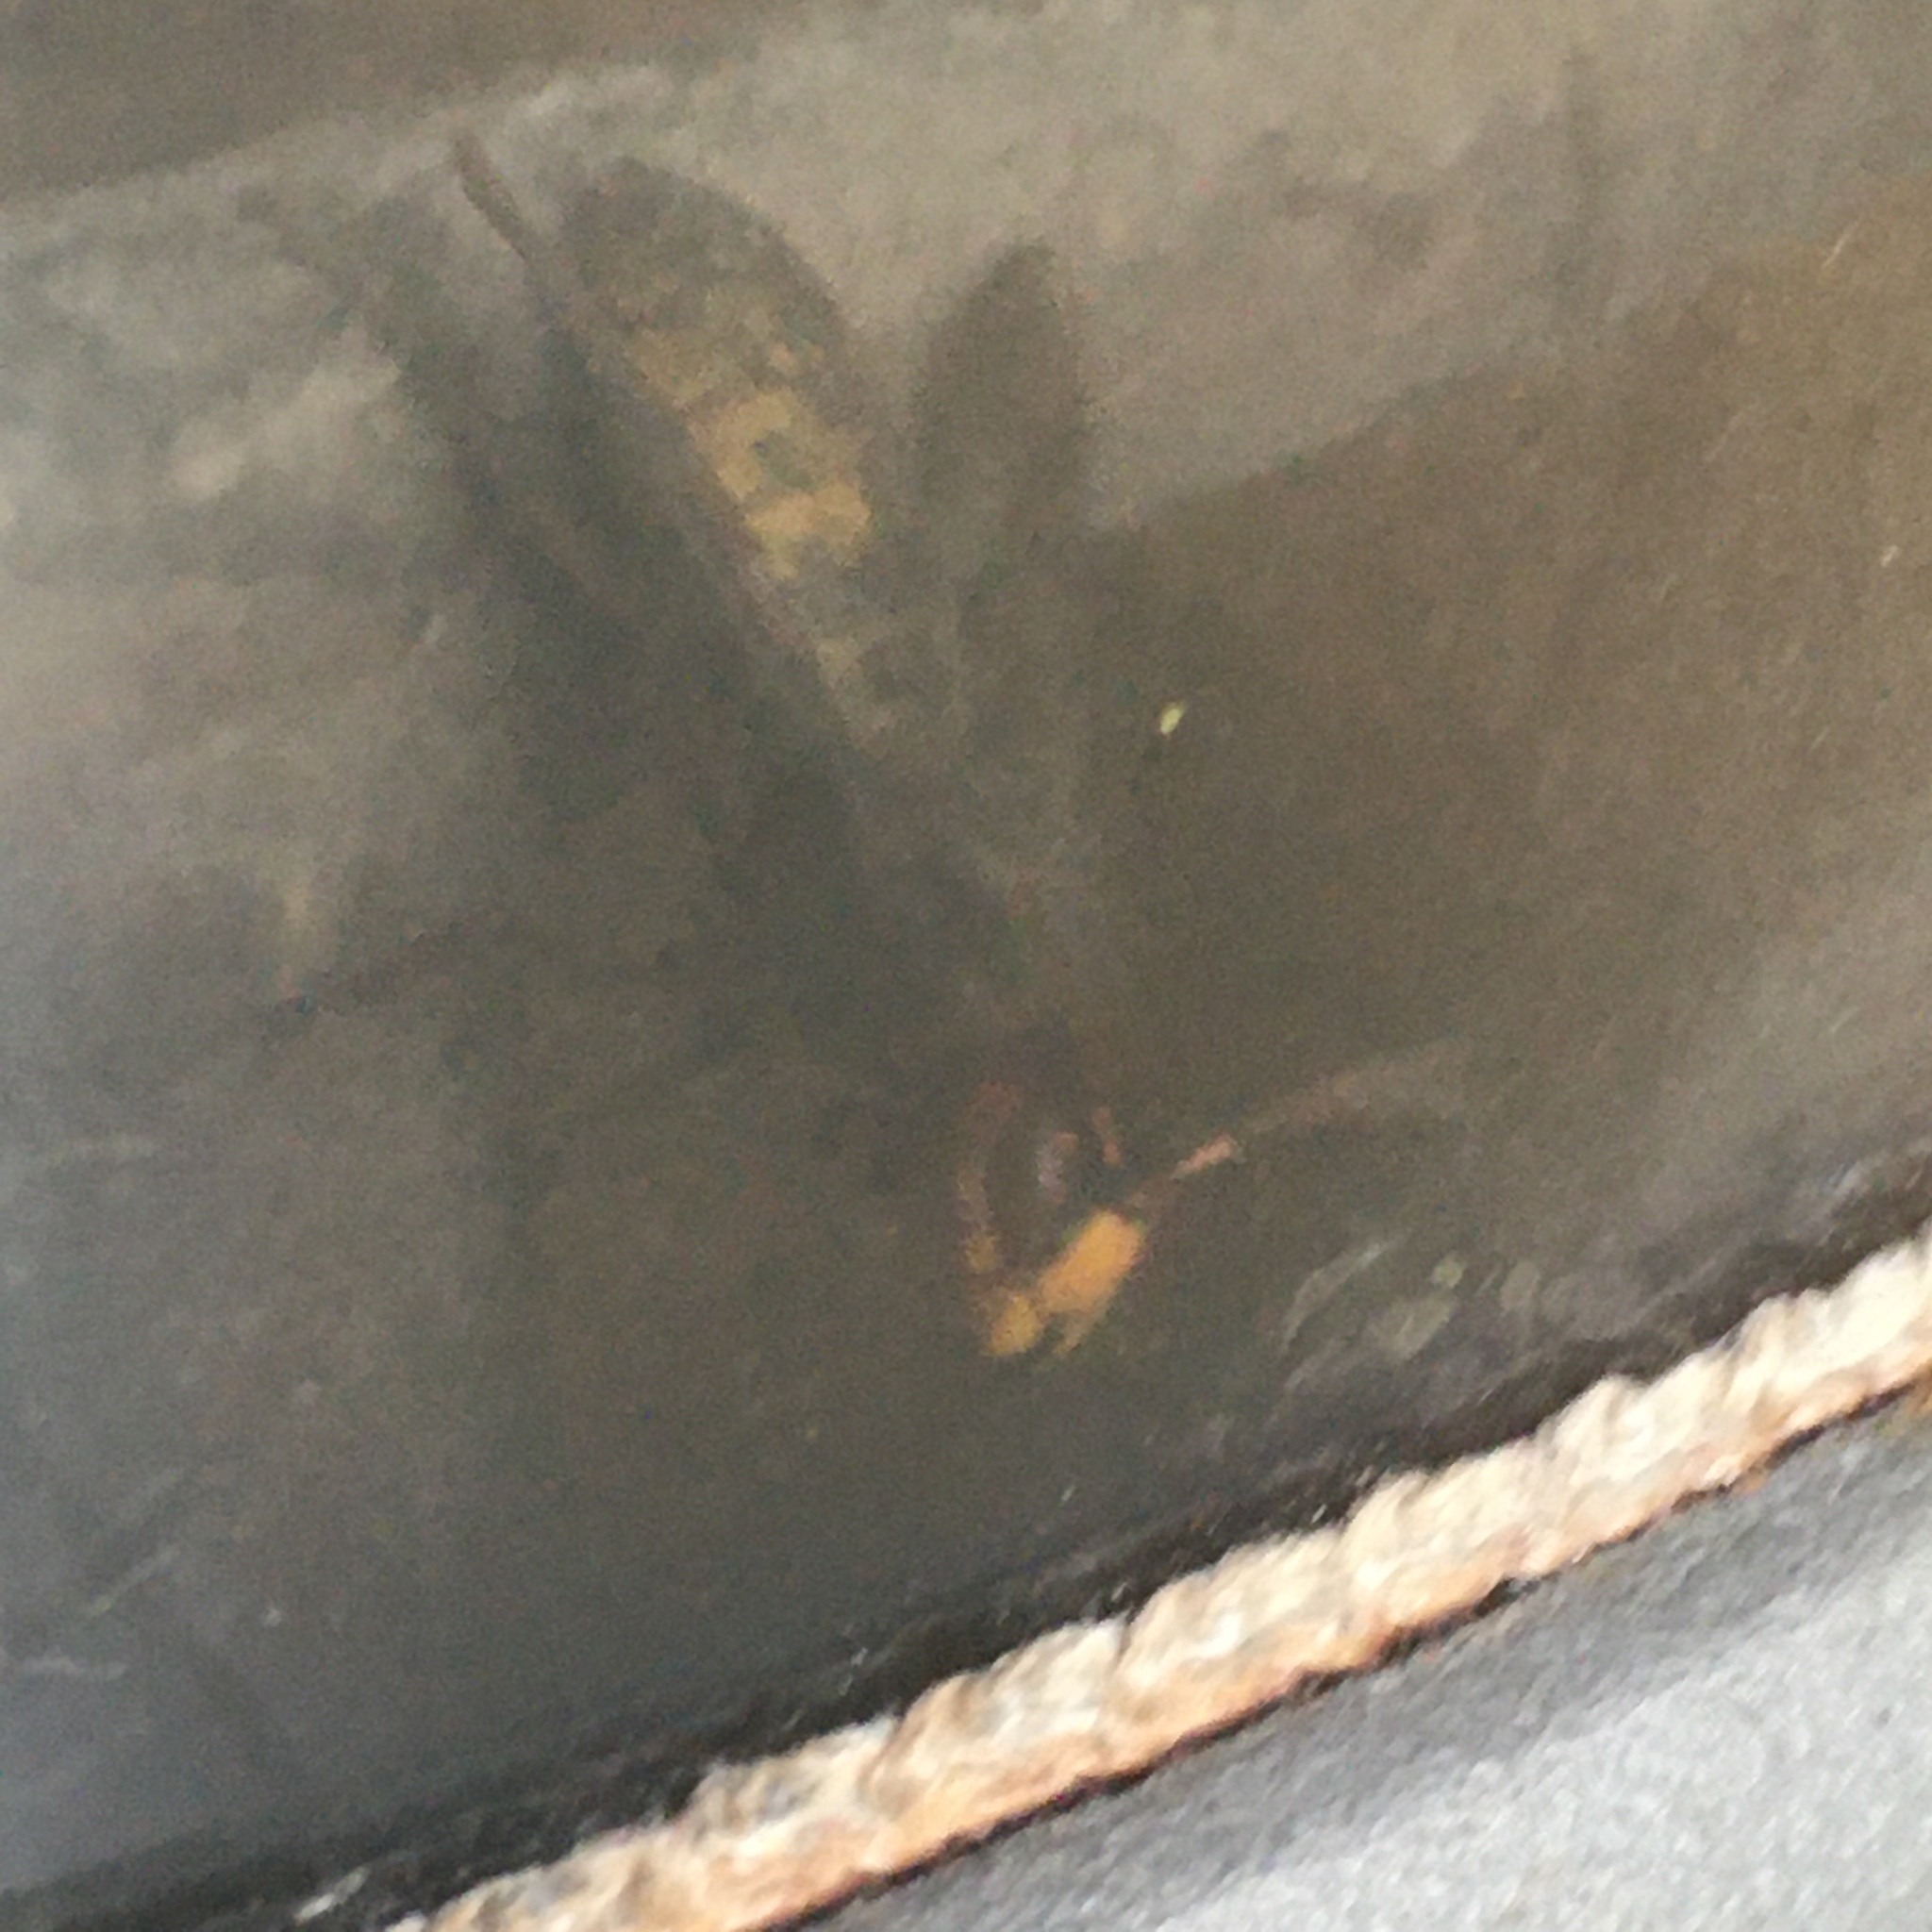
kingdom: Animalia
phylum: Arthropoda
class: Insecta
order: Hymenoptera
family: Vespidae
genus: Vespa
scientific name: Vespa crabro
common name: Hornet
